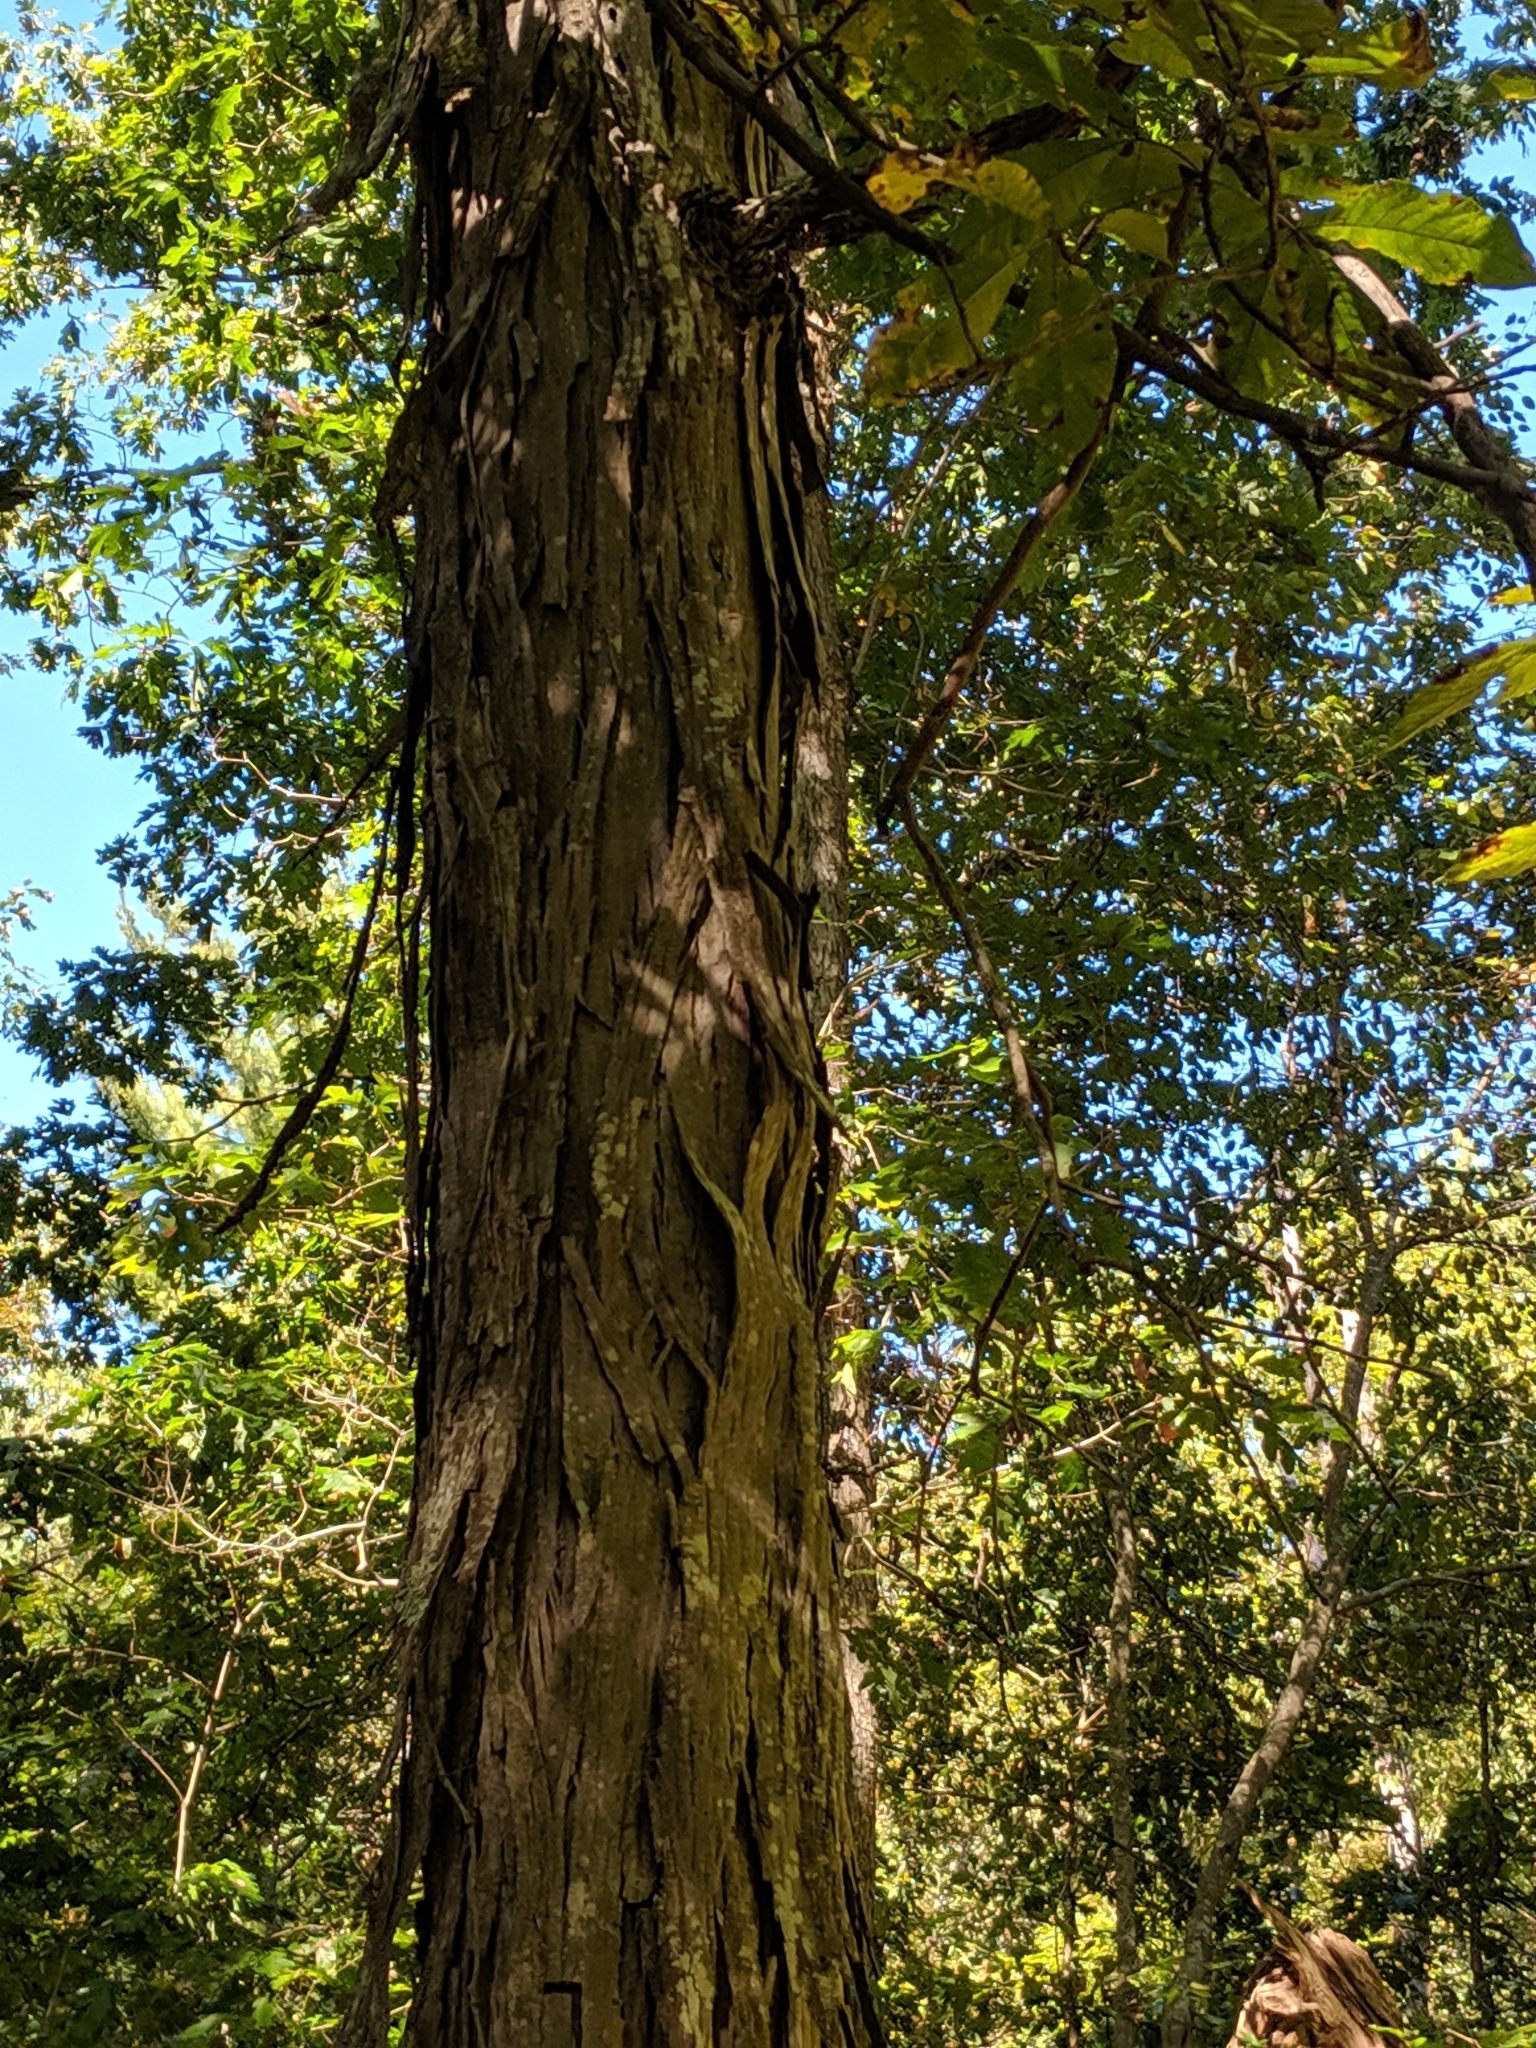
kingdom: Plantae
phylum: Tracheophyta
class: Magnoliopsida
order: Fagales
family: Juglandaceae
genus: Carya
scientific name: Carya ovata
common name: Shagbark hickory
